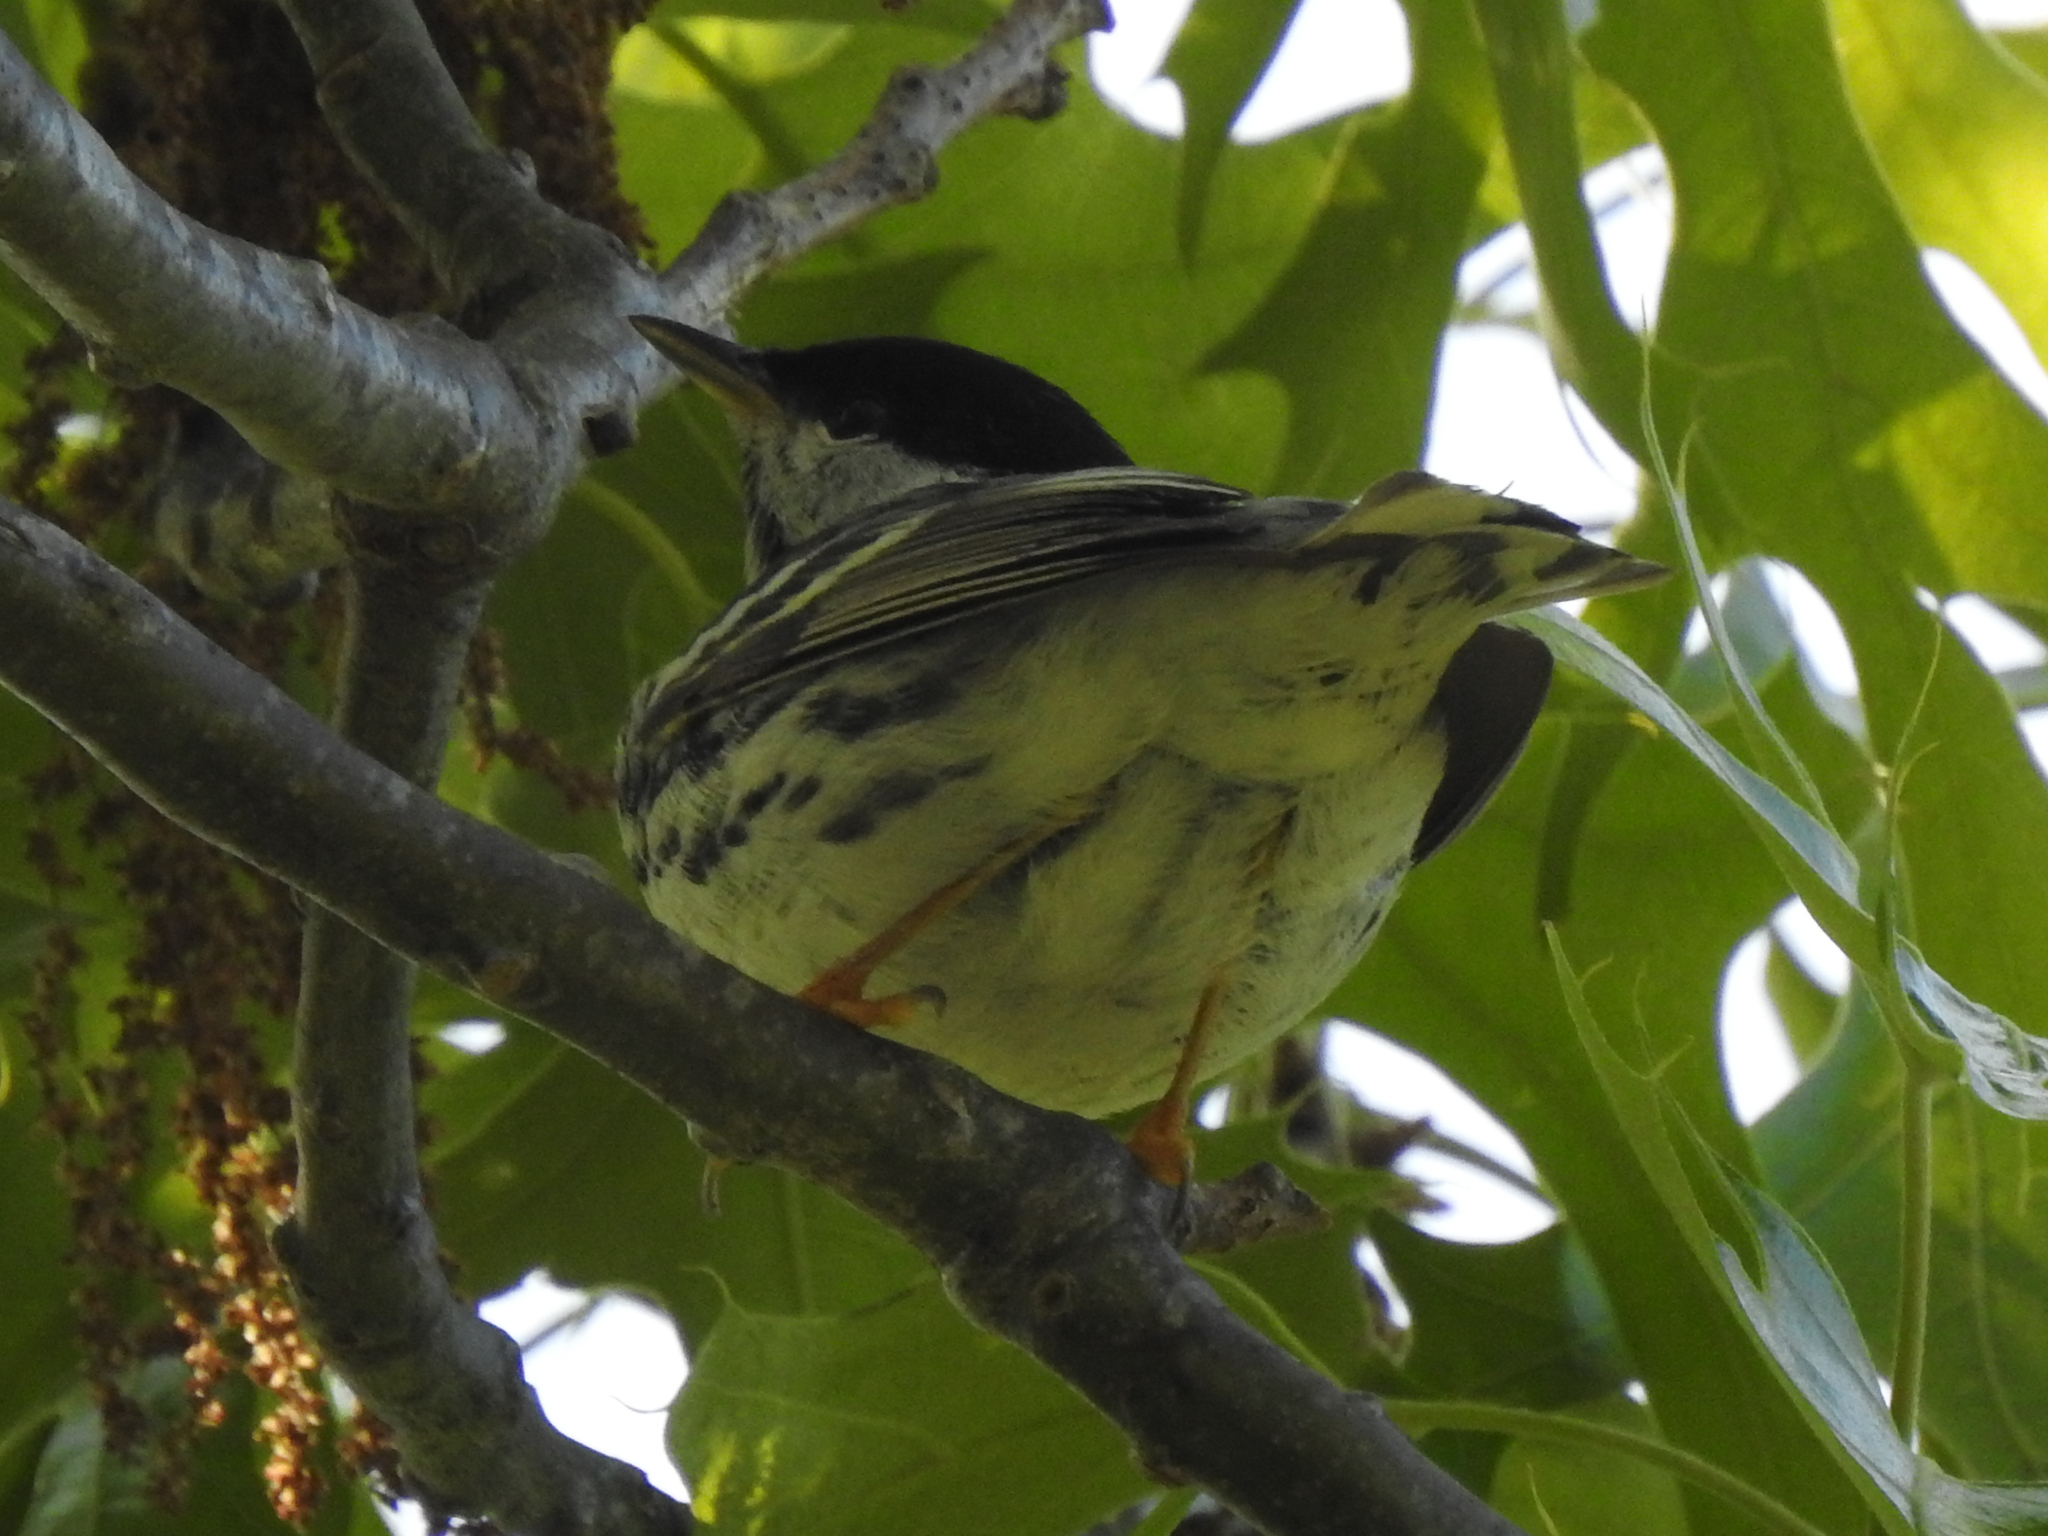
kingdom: Animalia
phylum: Chordata
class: Aves
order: Passeriformes
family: Parulidae
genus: Setophaga
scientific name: Setophaga striata
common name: Blackpoll warbler
